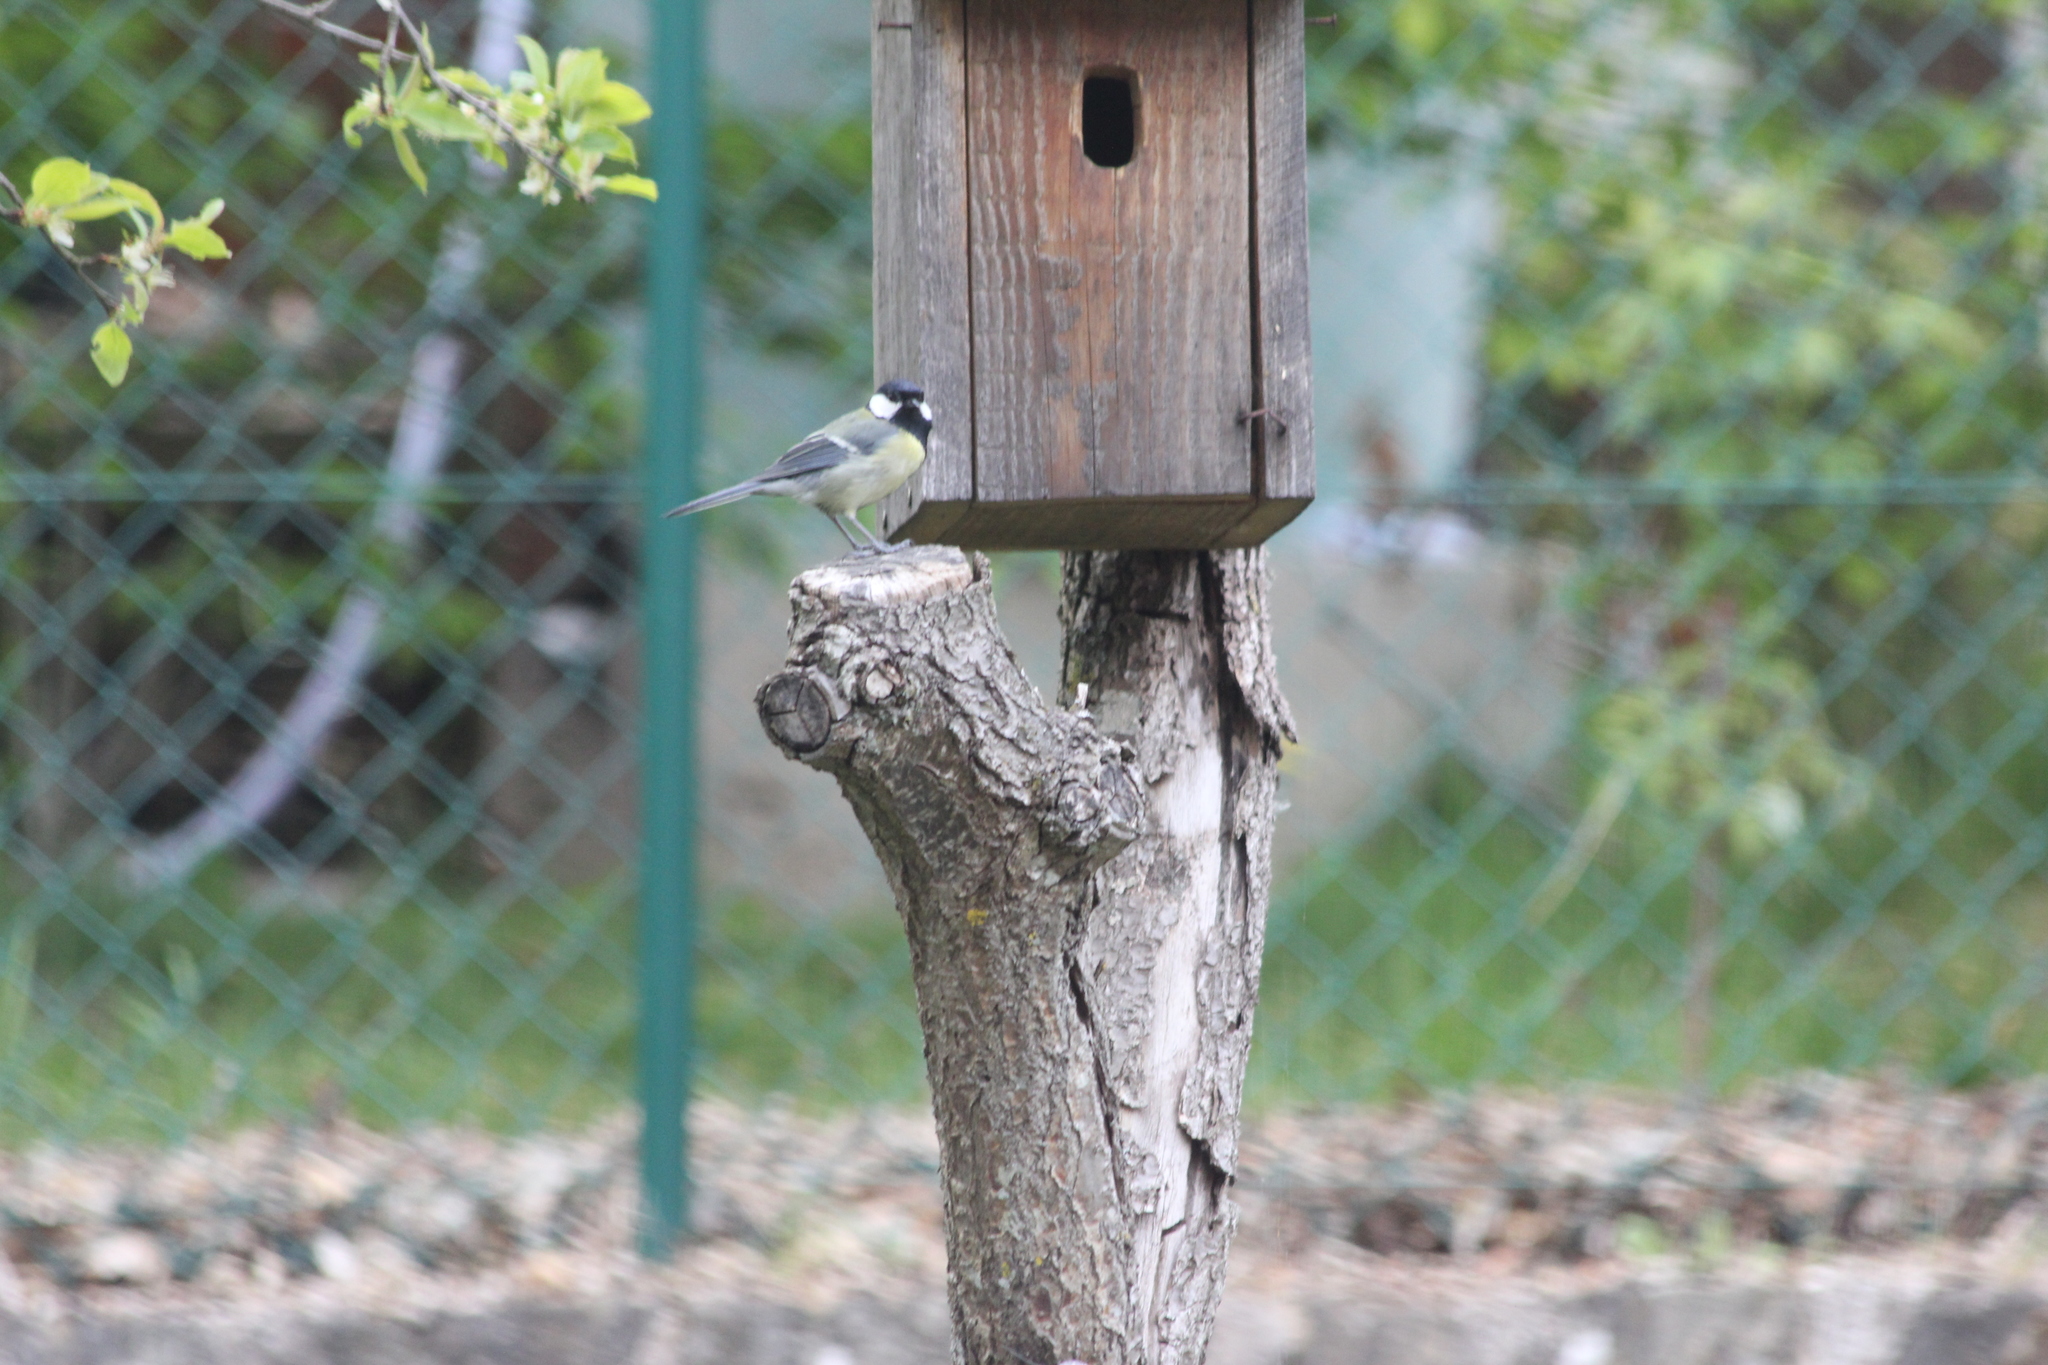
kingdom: Animalia
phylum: Chordata
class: Aves
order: Passeriformes
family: Paridae
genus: Parus
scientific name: Parus major
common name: Great tit
